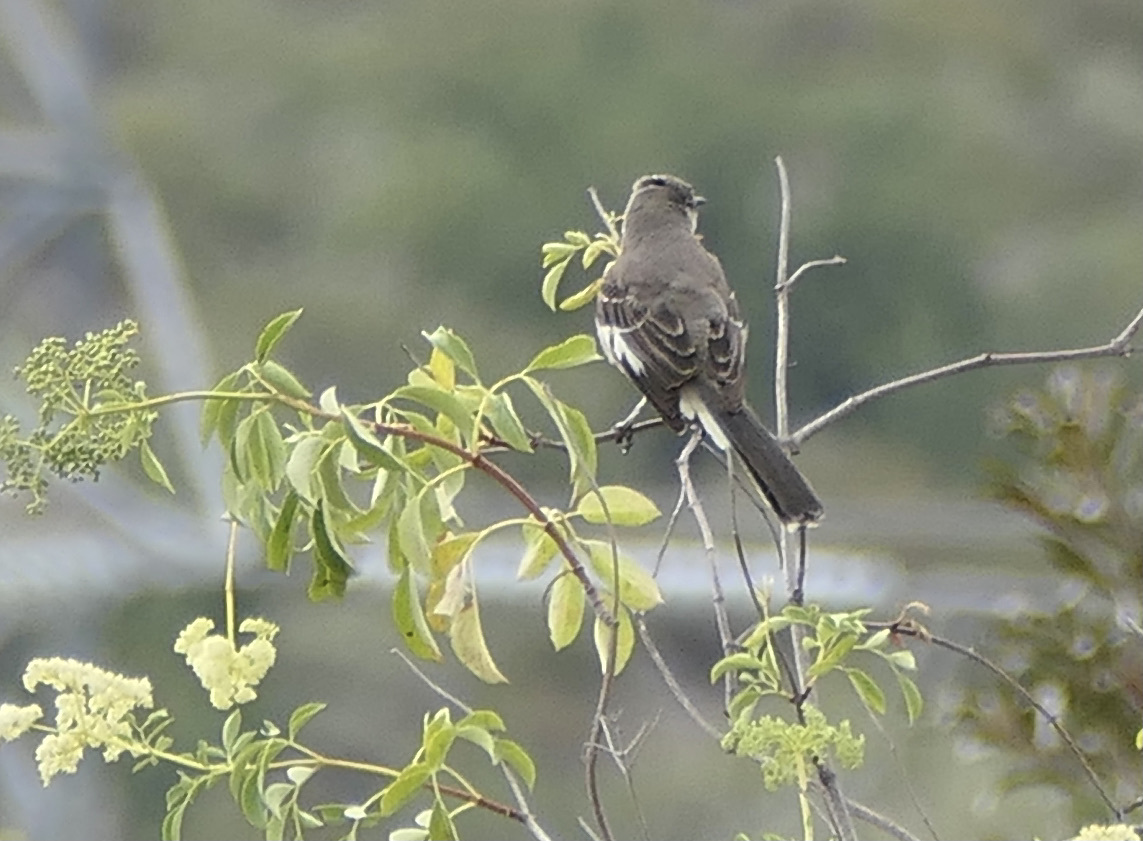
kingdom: Animalia
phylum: Chordata
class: Aves
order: Passeriformes
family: Mimidae
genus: Mimus
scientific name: Mimus polyglottos
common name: Northern mockingbird
